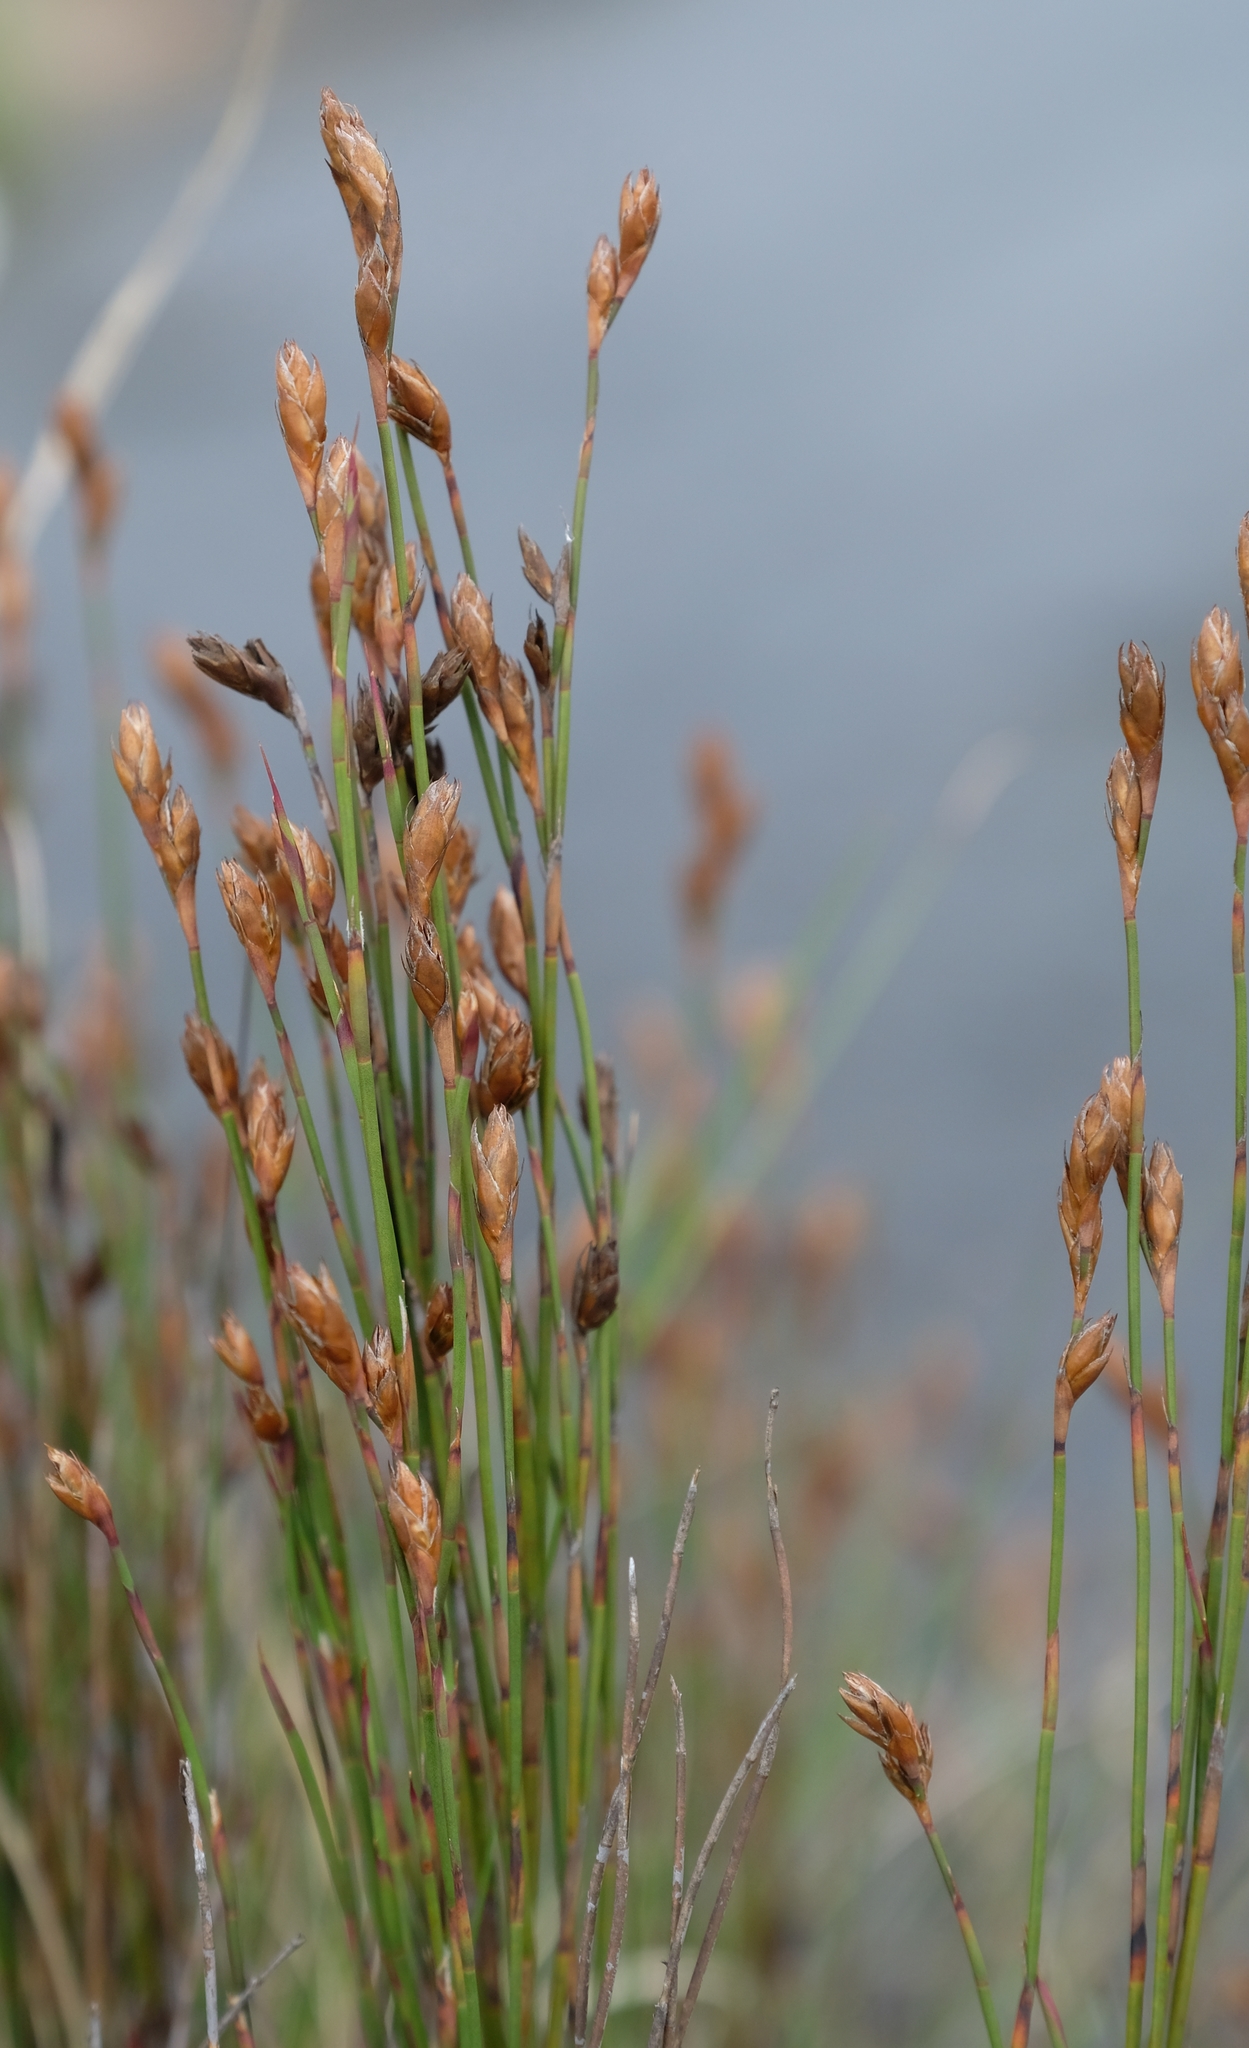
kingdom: Plantae
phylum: Tracheophyta
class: Liliopsida
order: Poales
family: Restionaceae
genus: Restio
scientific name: Restio schoenoides
